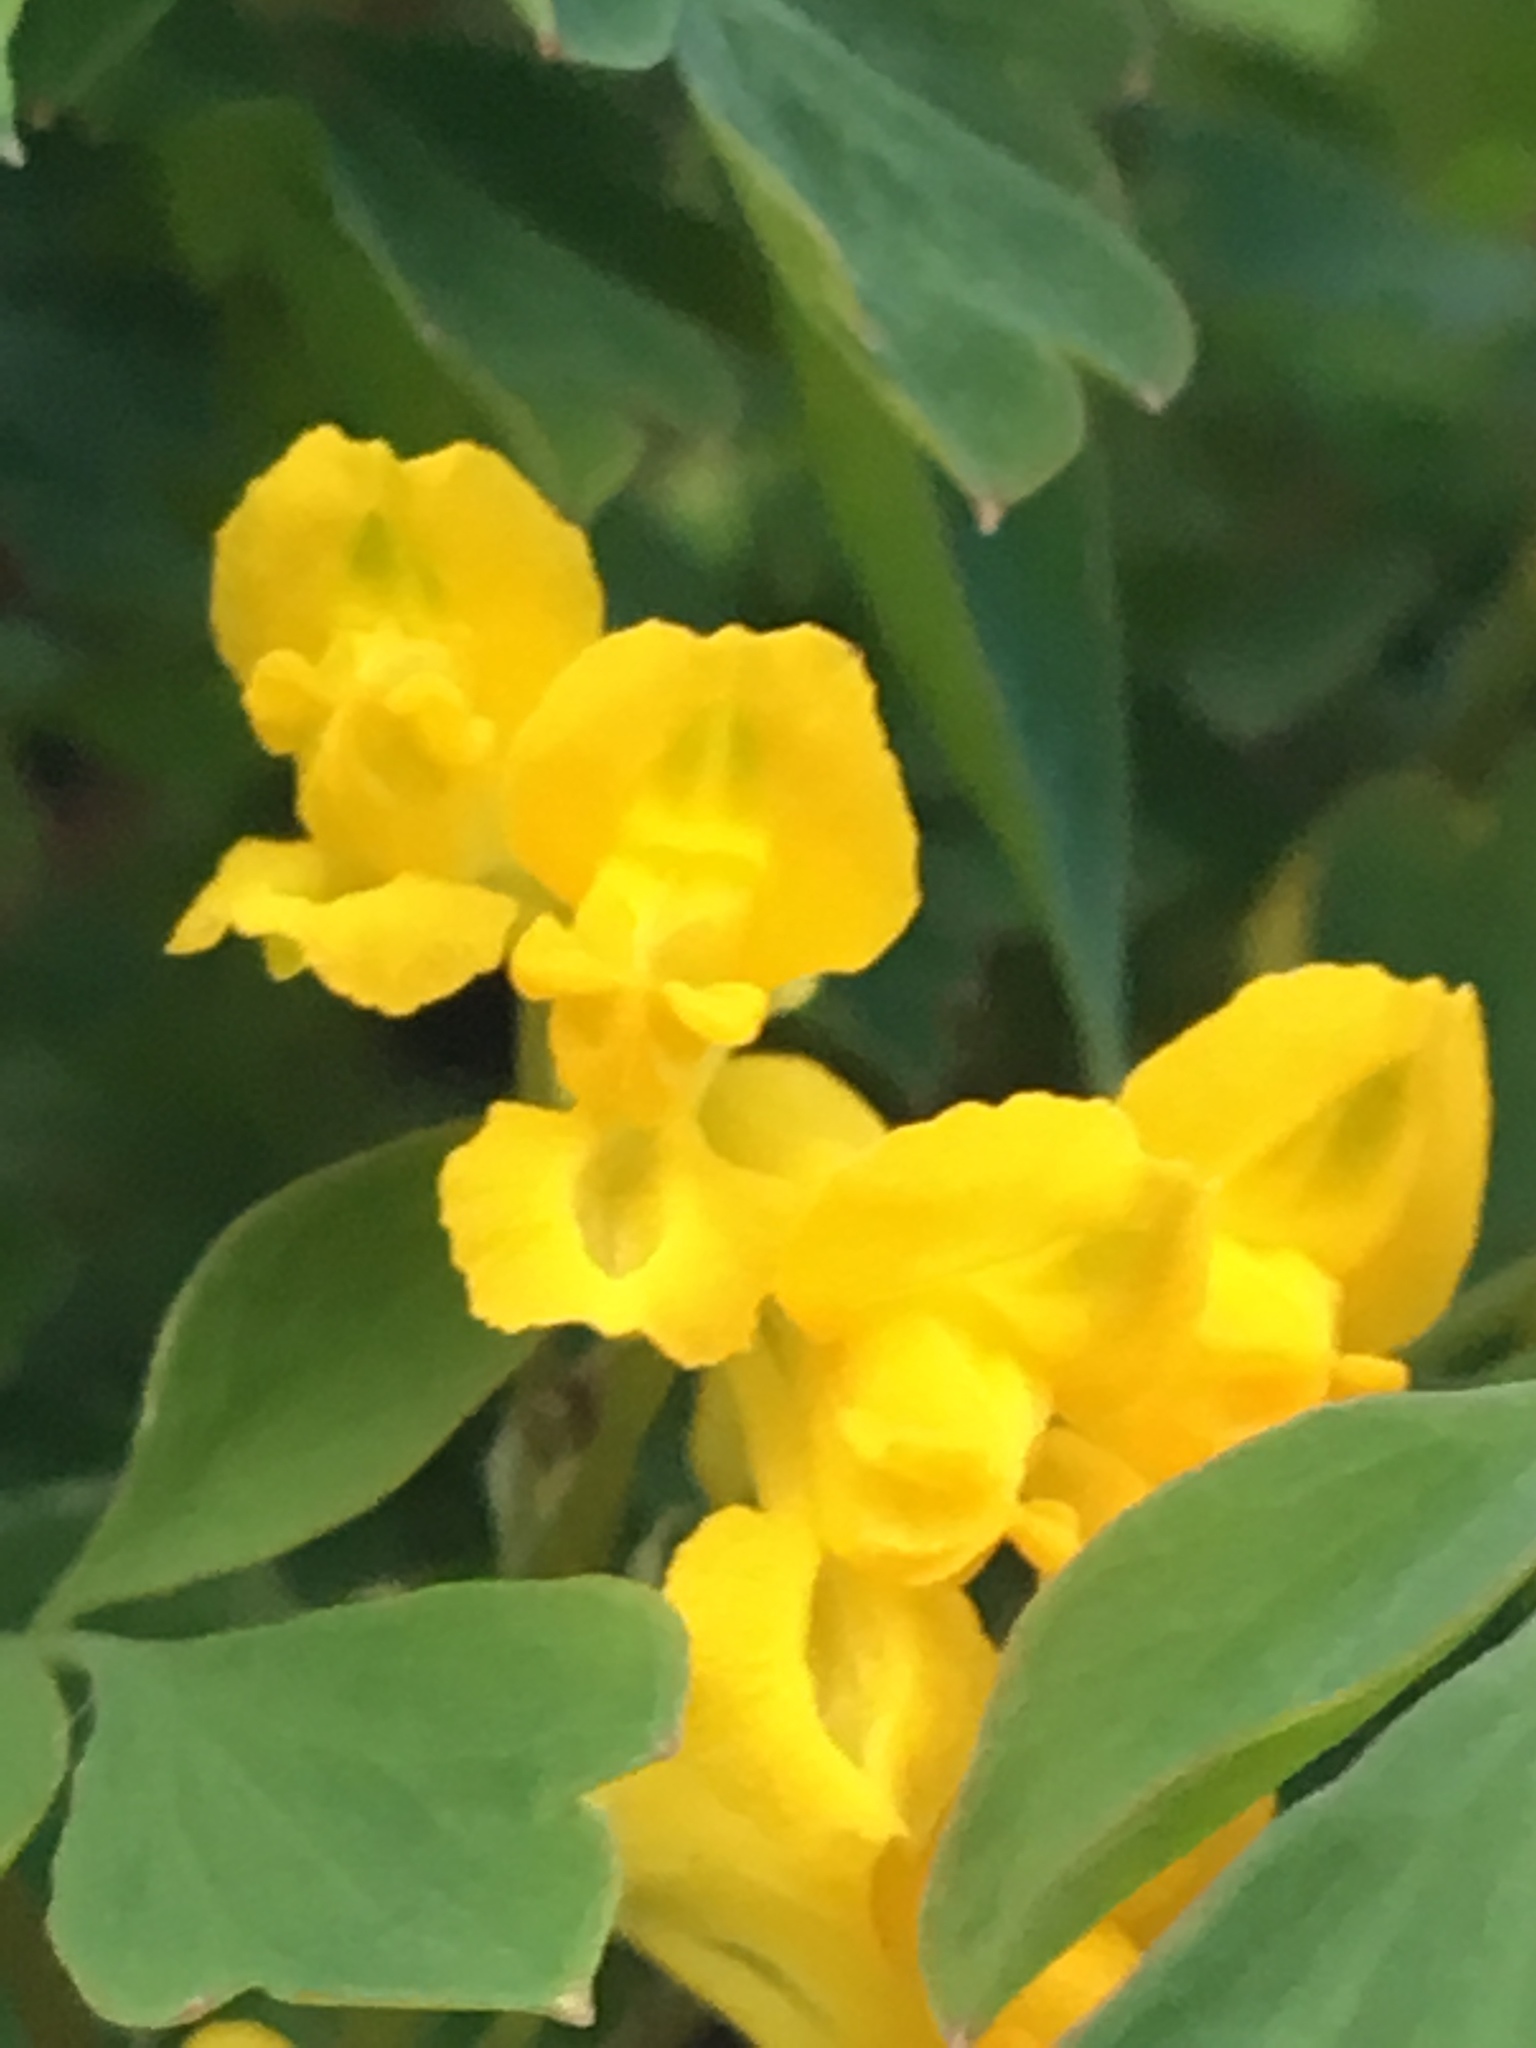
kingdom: Plantae
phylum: Tracheophyta
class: Magnoliopsida
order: Ranunculales
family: Papaveraceae
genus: Pseudofumaria
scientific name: Pseudofumaria lutea
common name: Yellow corydalis
